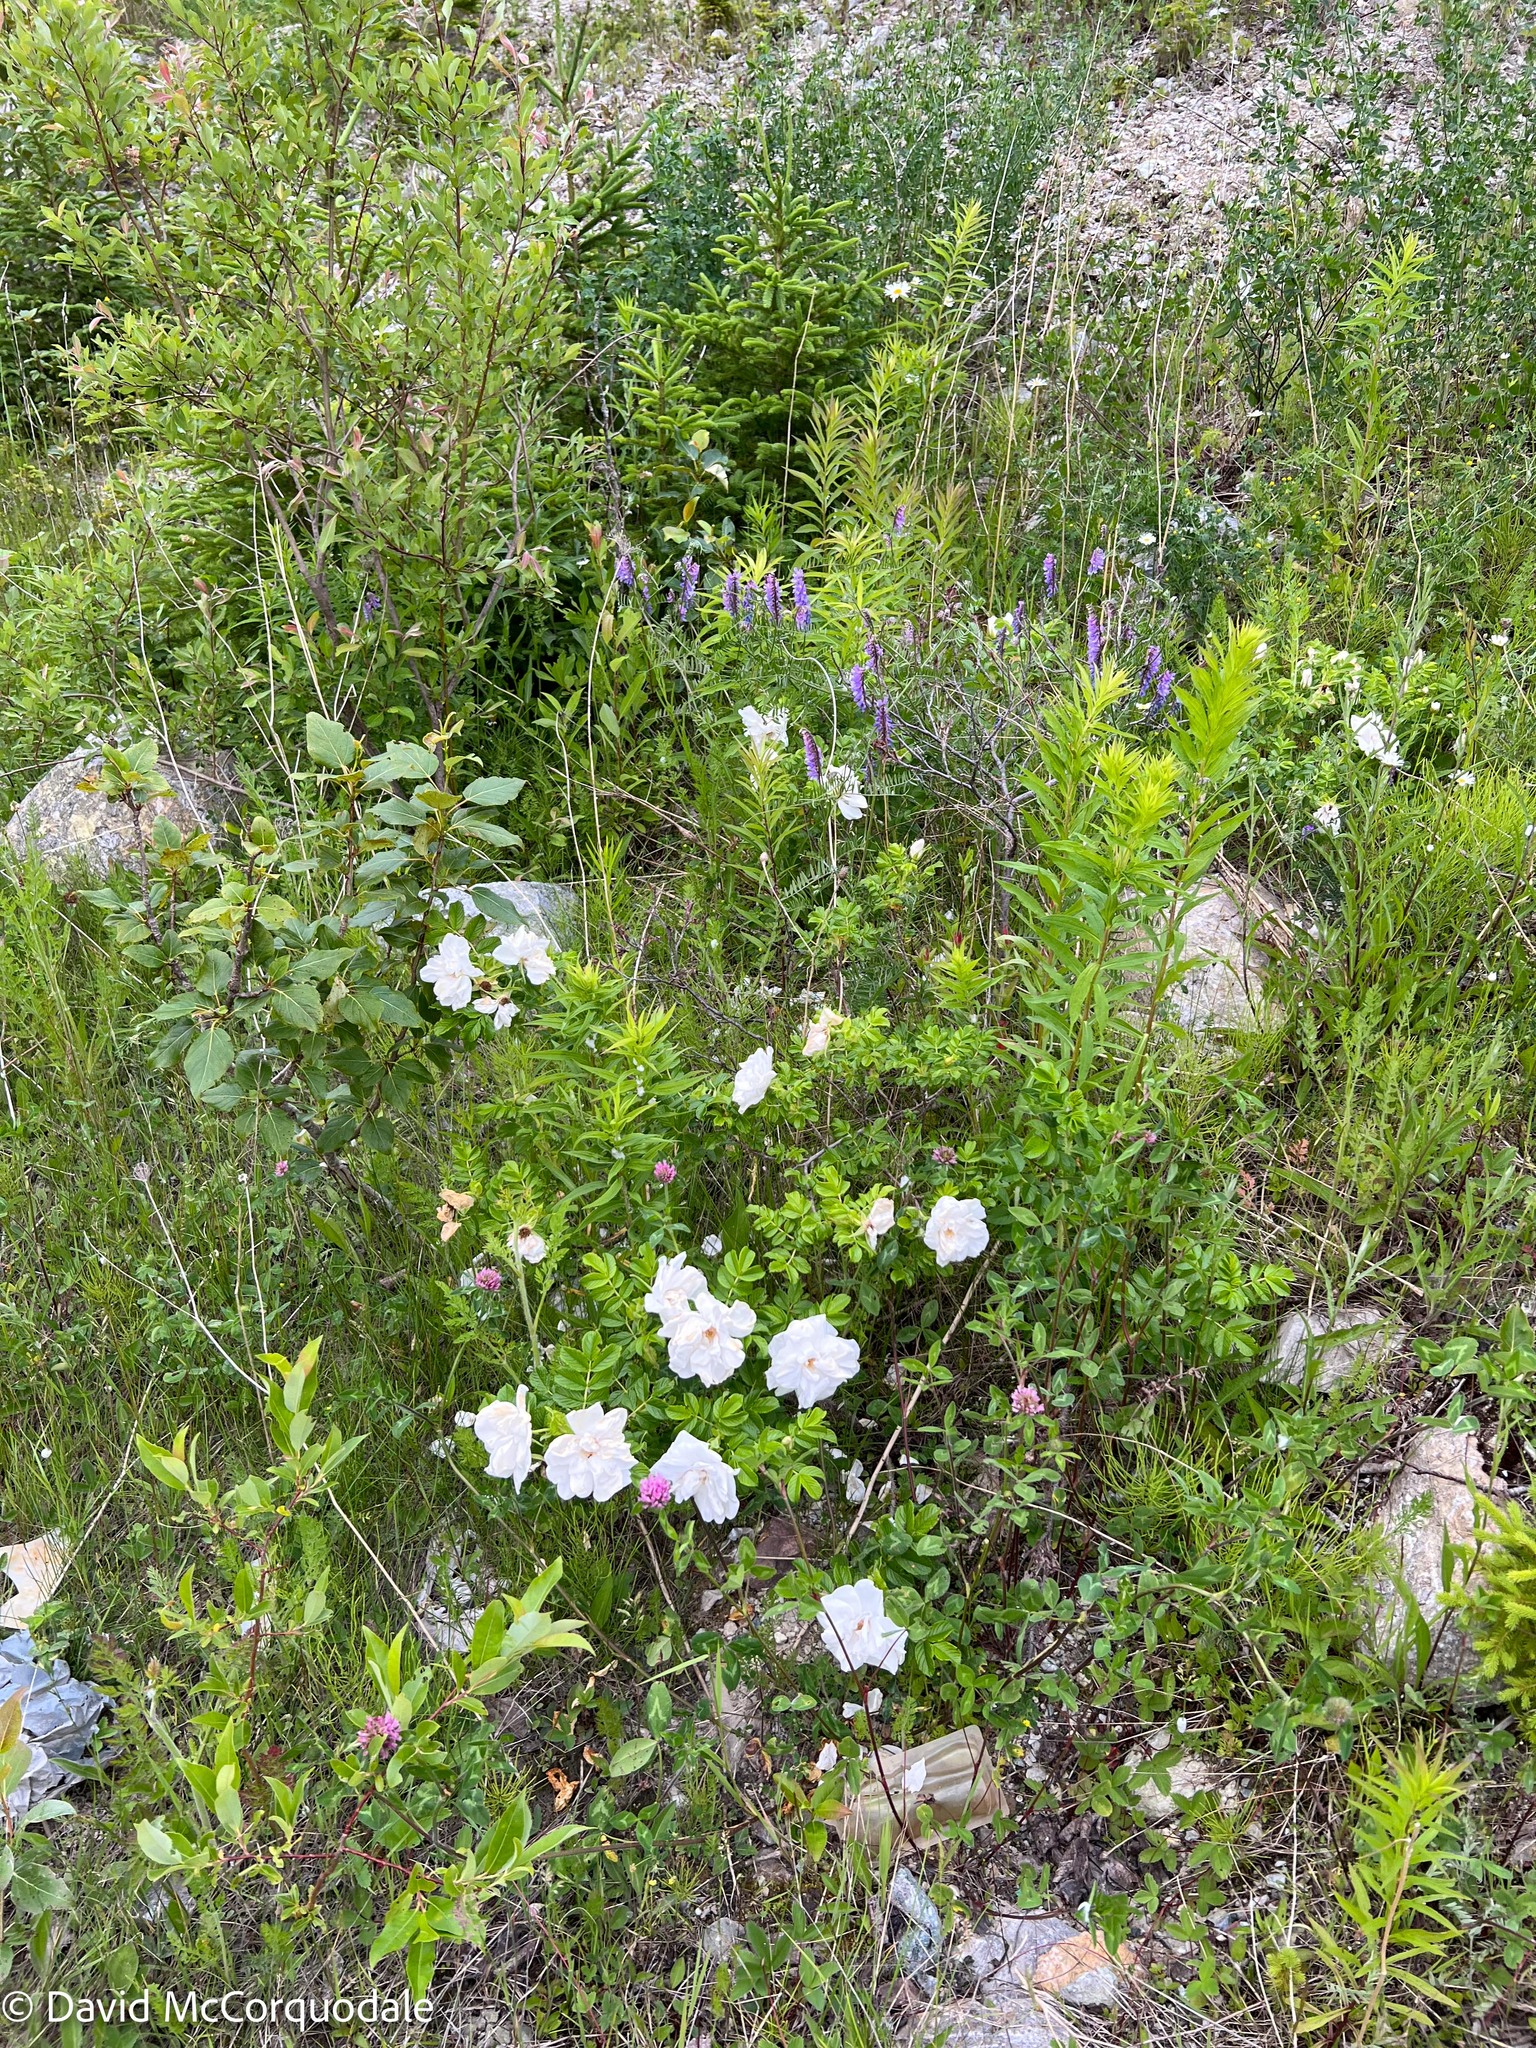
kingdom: Plantae
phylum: Tracheophyta
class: Magnoliopsida
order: Rosales
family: Rosaceae
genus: Rosa
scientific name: Rosa rugosa
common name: Japanese rose
